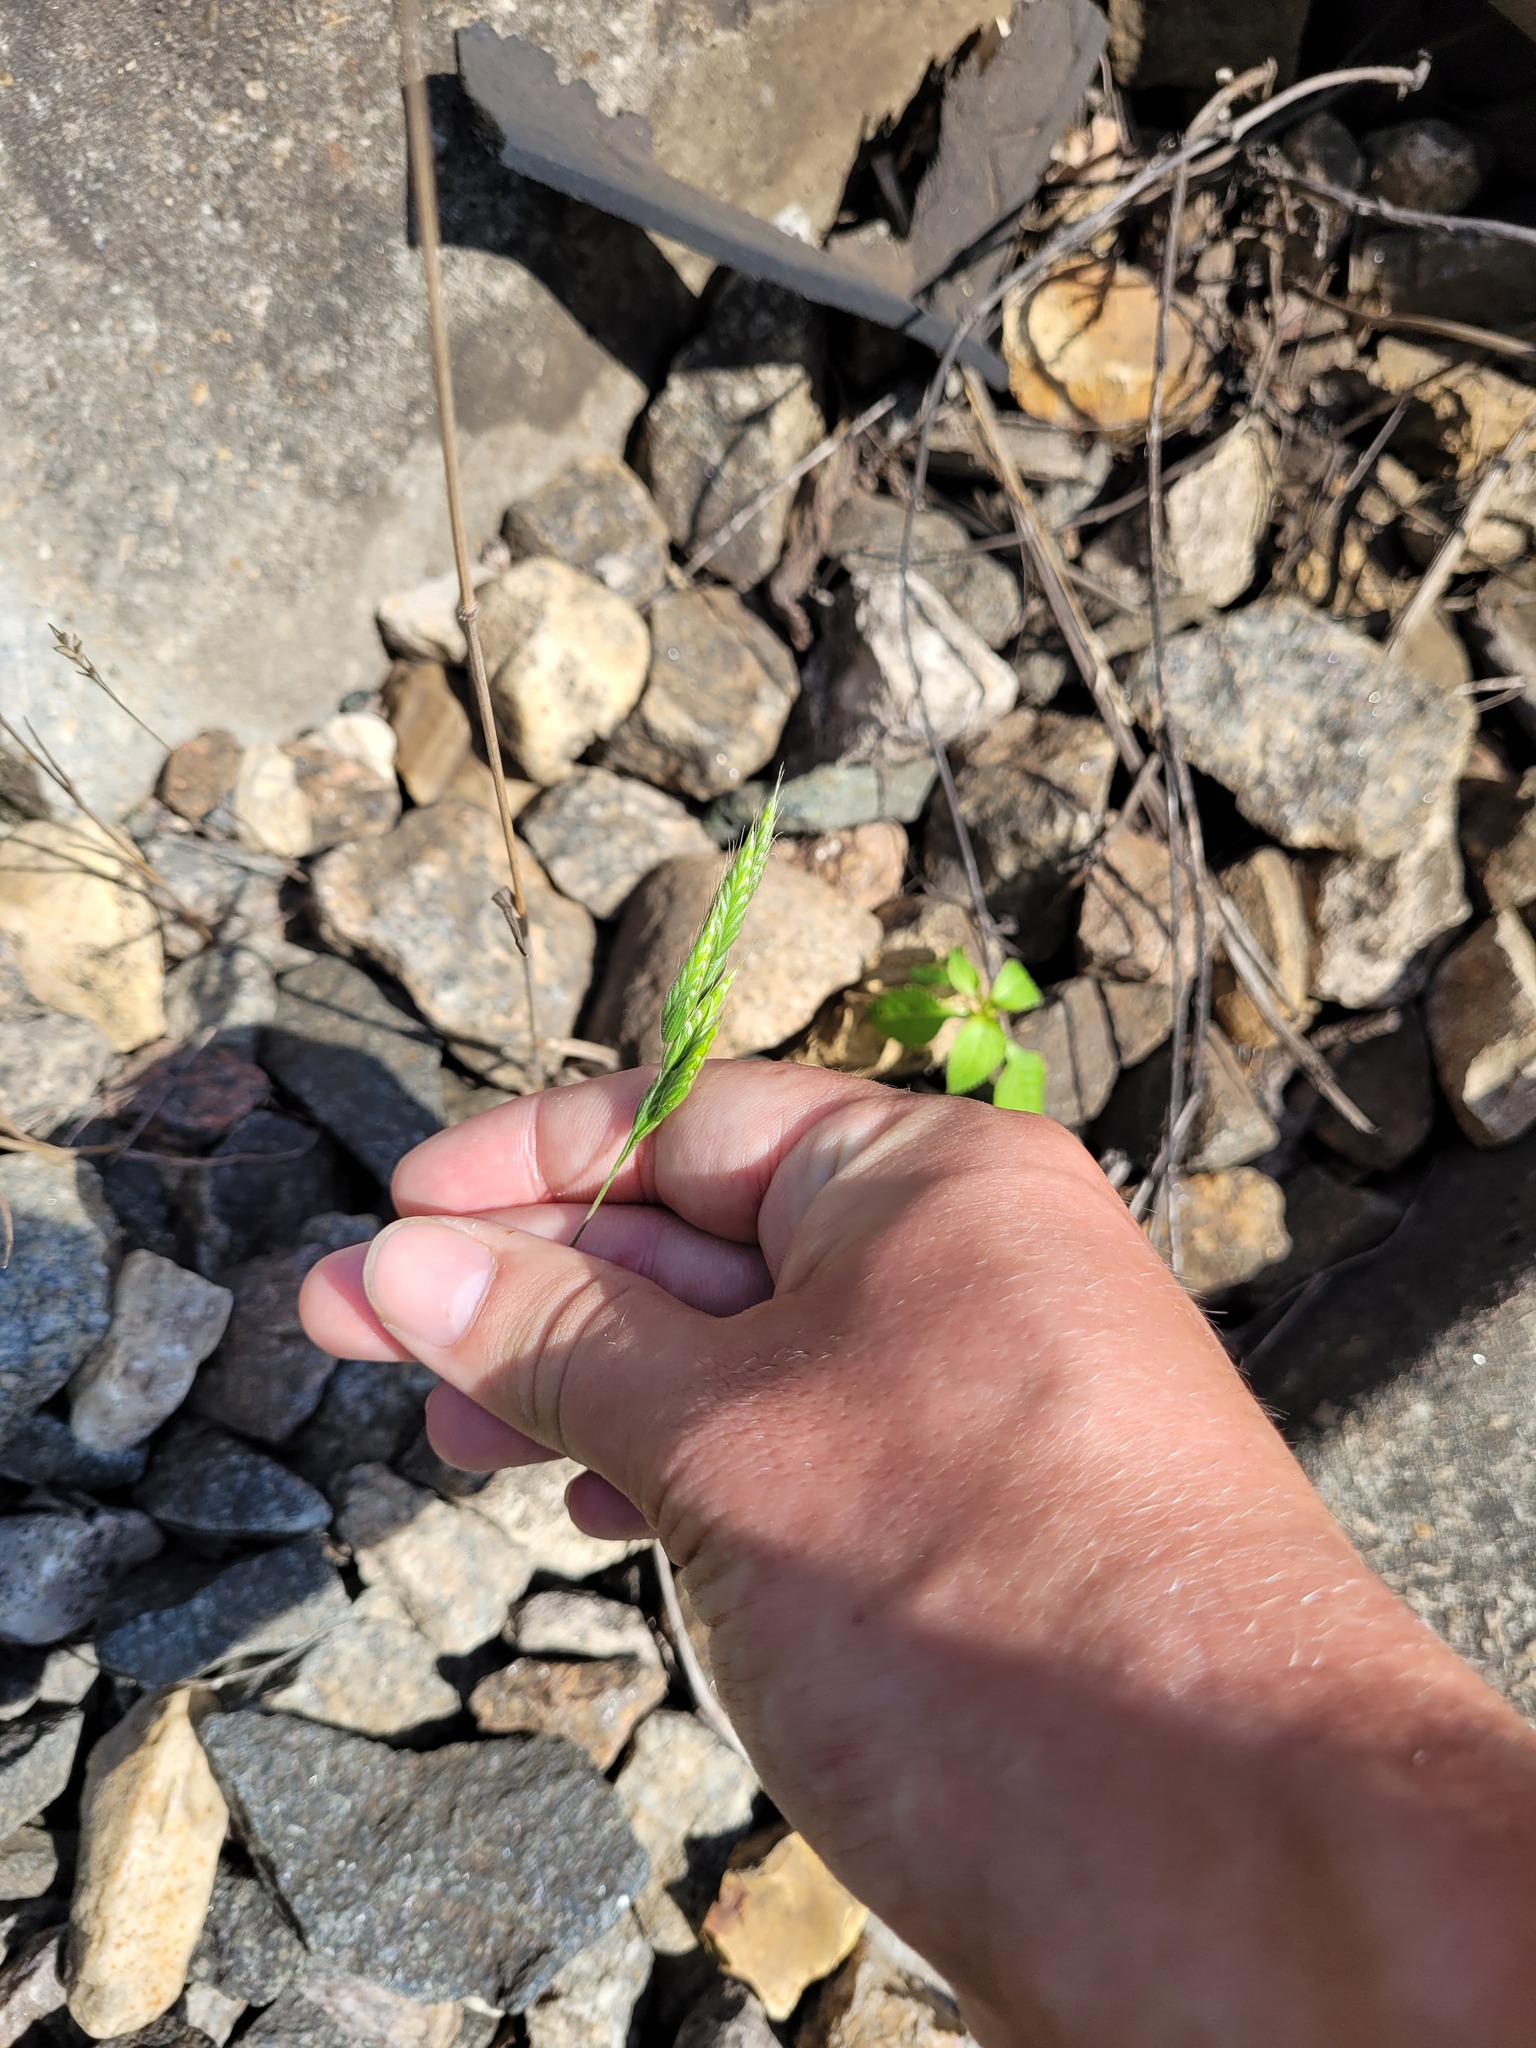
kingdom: Plantae
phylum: Tracheophyta
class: Liliopsida
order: Poales
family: Poaceae
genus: Bromus
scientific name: Bromus hordeaceus
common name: Soft brome
